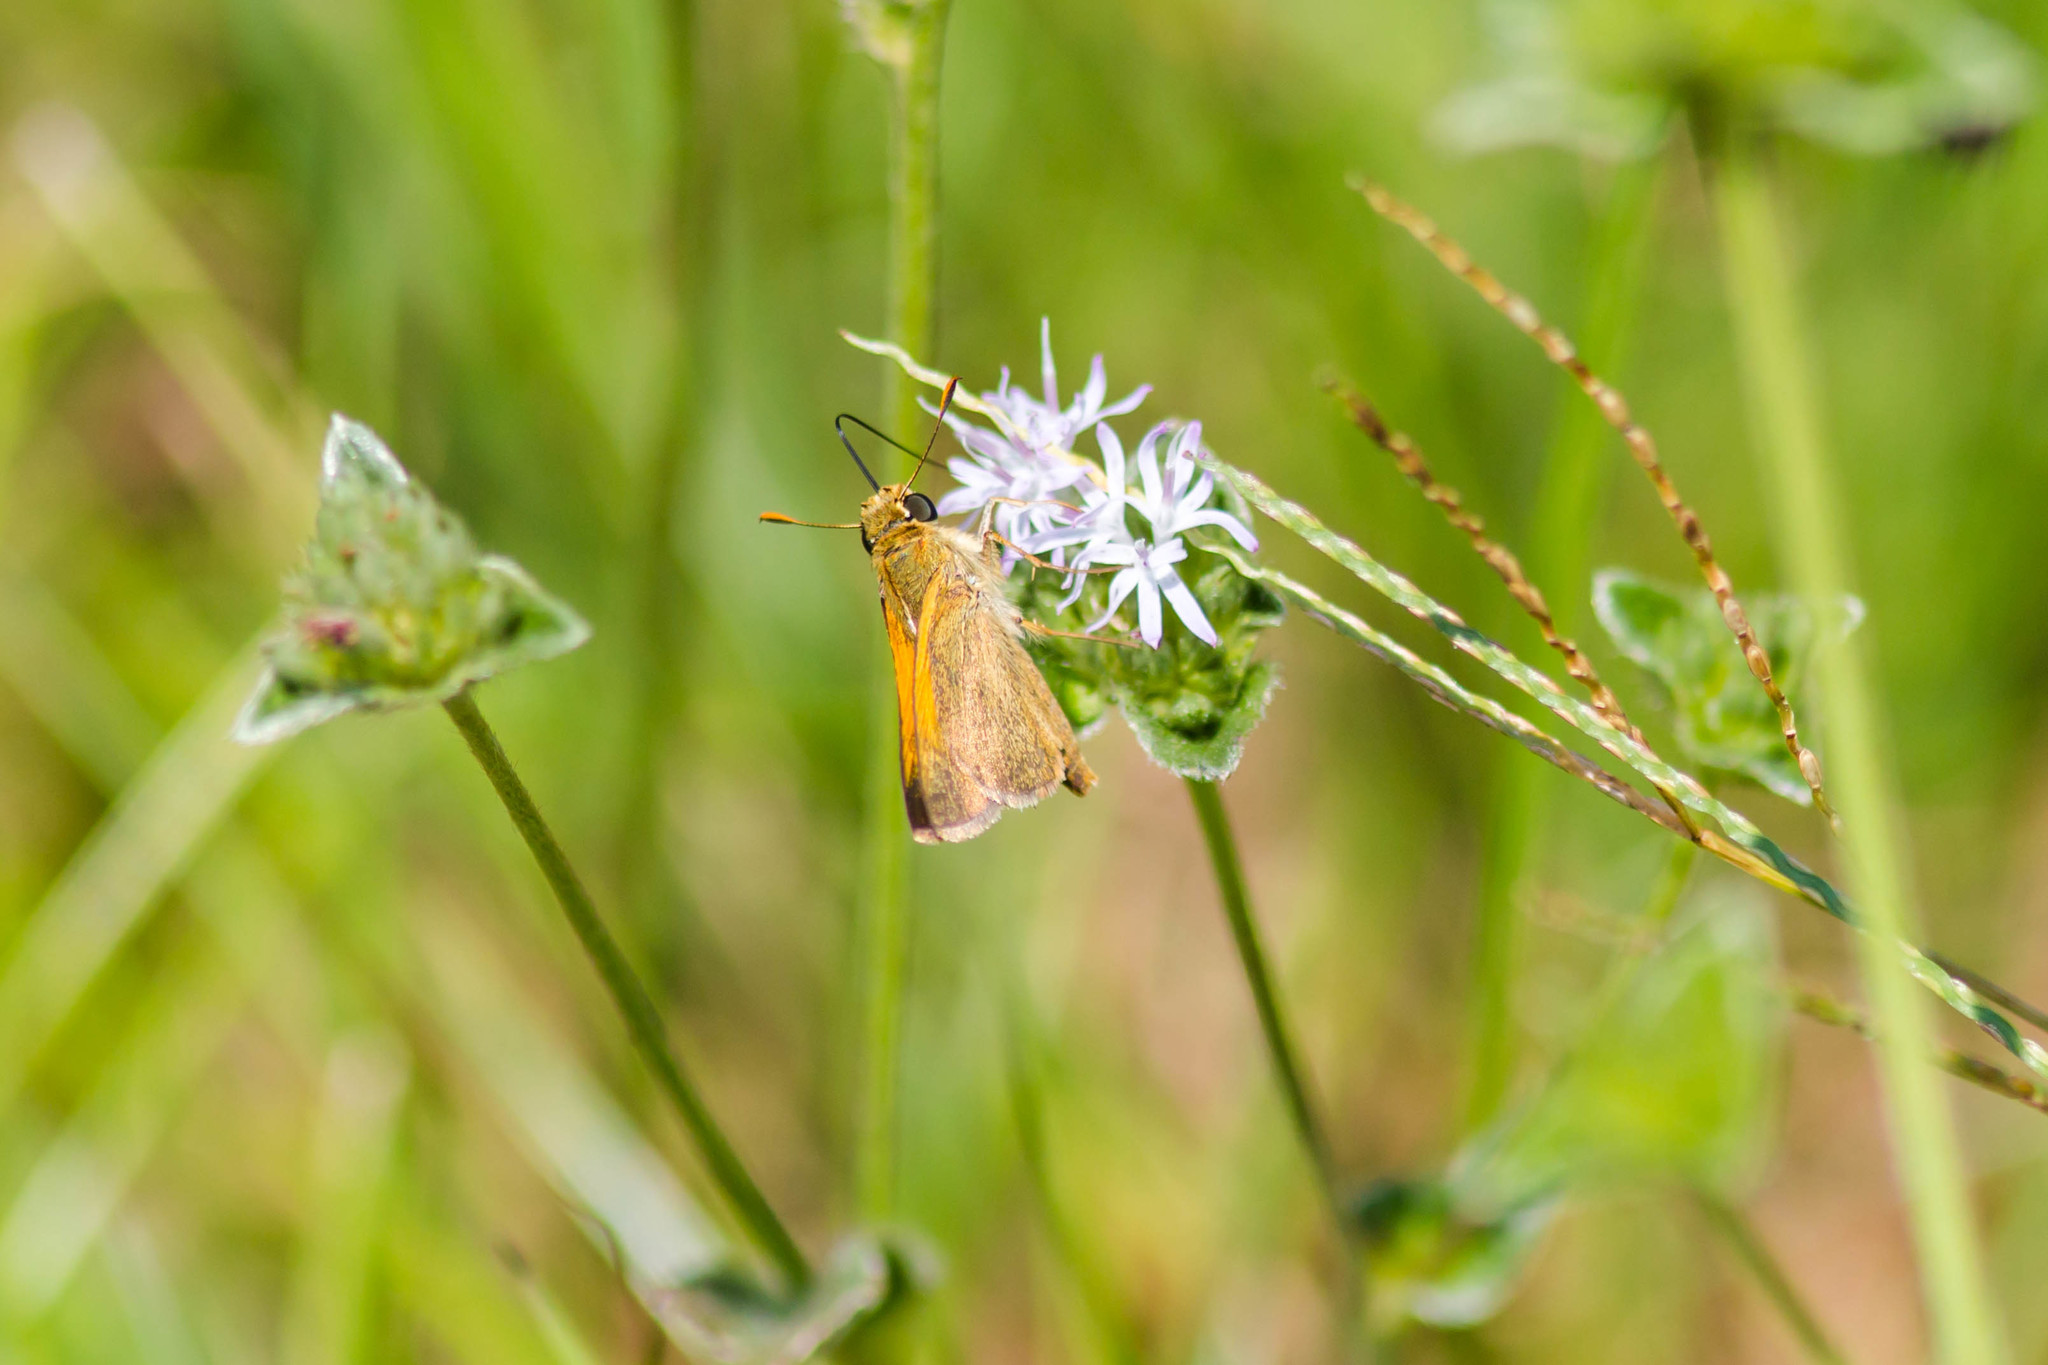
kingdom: Animalia
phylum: Arthropoda
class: Insecta
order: Lepidoptera
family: Hesperiidae
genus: Polites
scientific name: Polites themistocles
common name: Tawny-edged skipper
